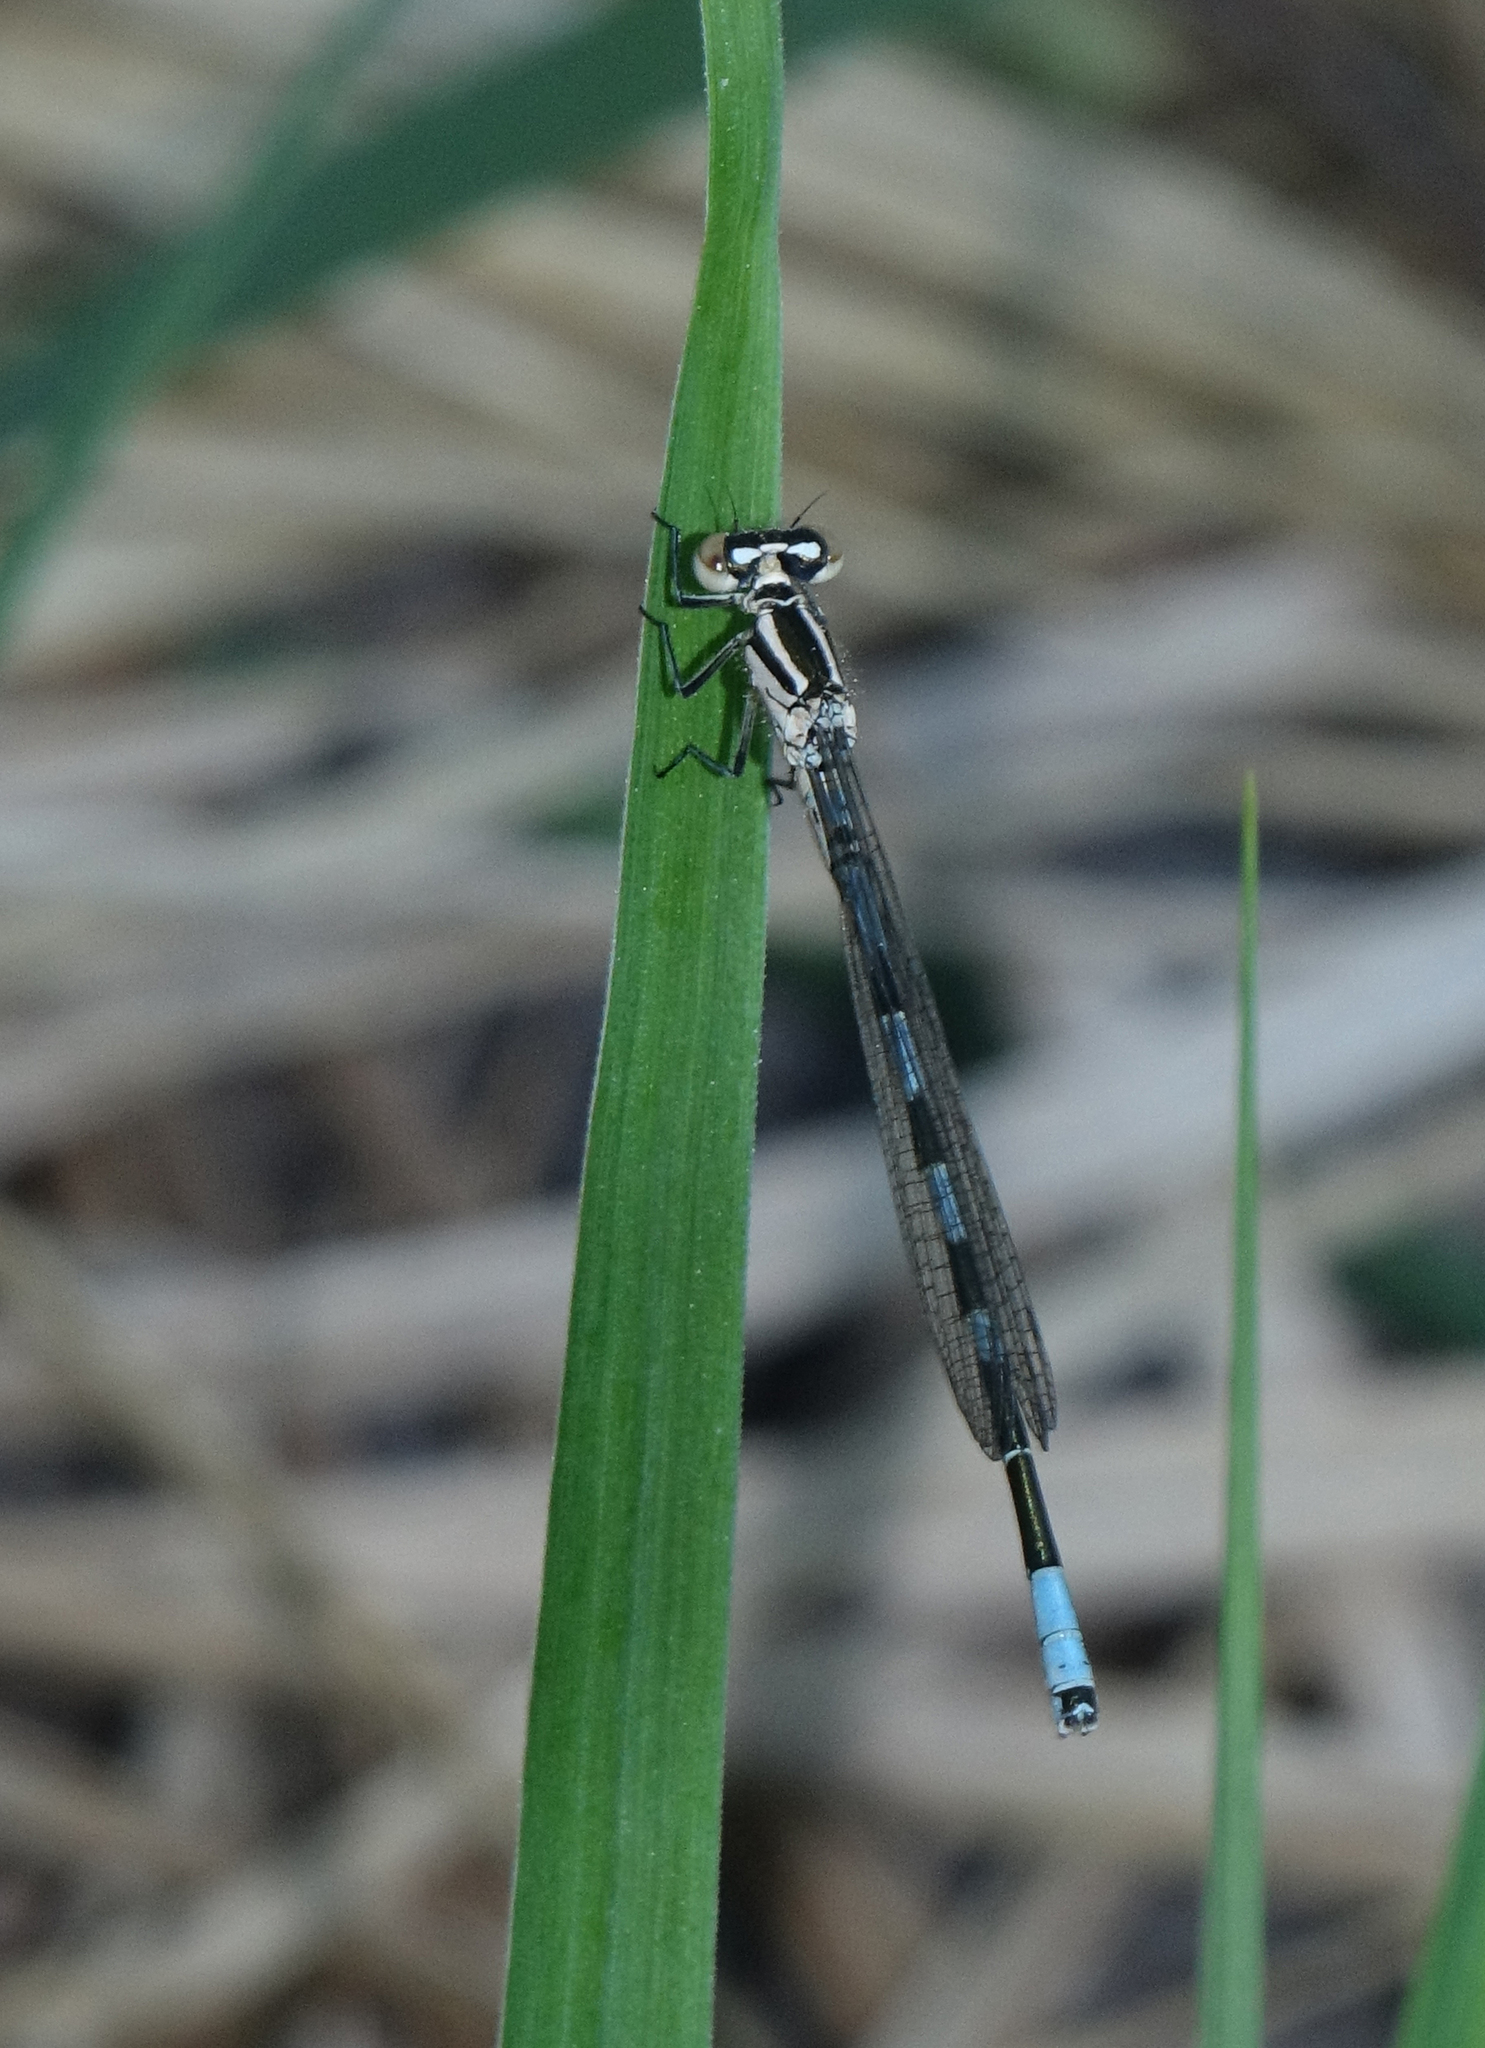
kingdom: Animalia
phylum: Arthropoda
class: Insecta
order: Odonata
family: Coenagrionidae
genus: Coenagrion
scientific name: Coenagrion hastulatum
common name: Spearhead bluet
